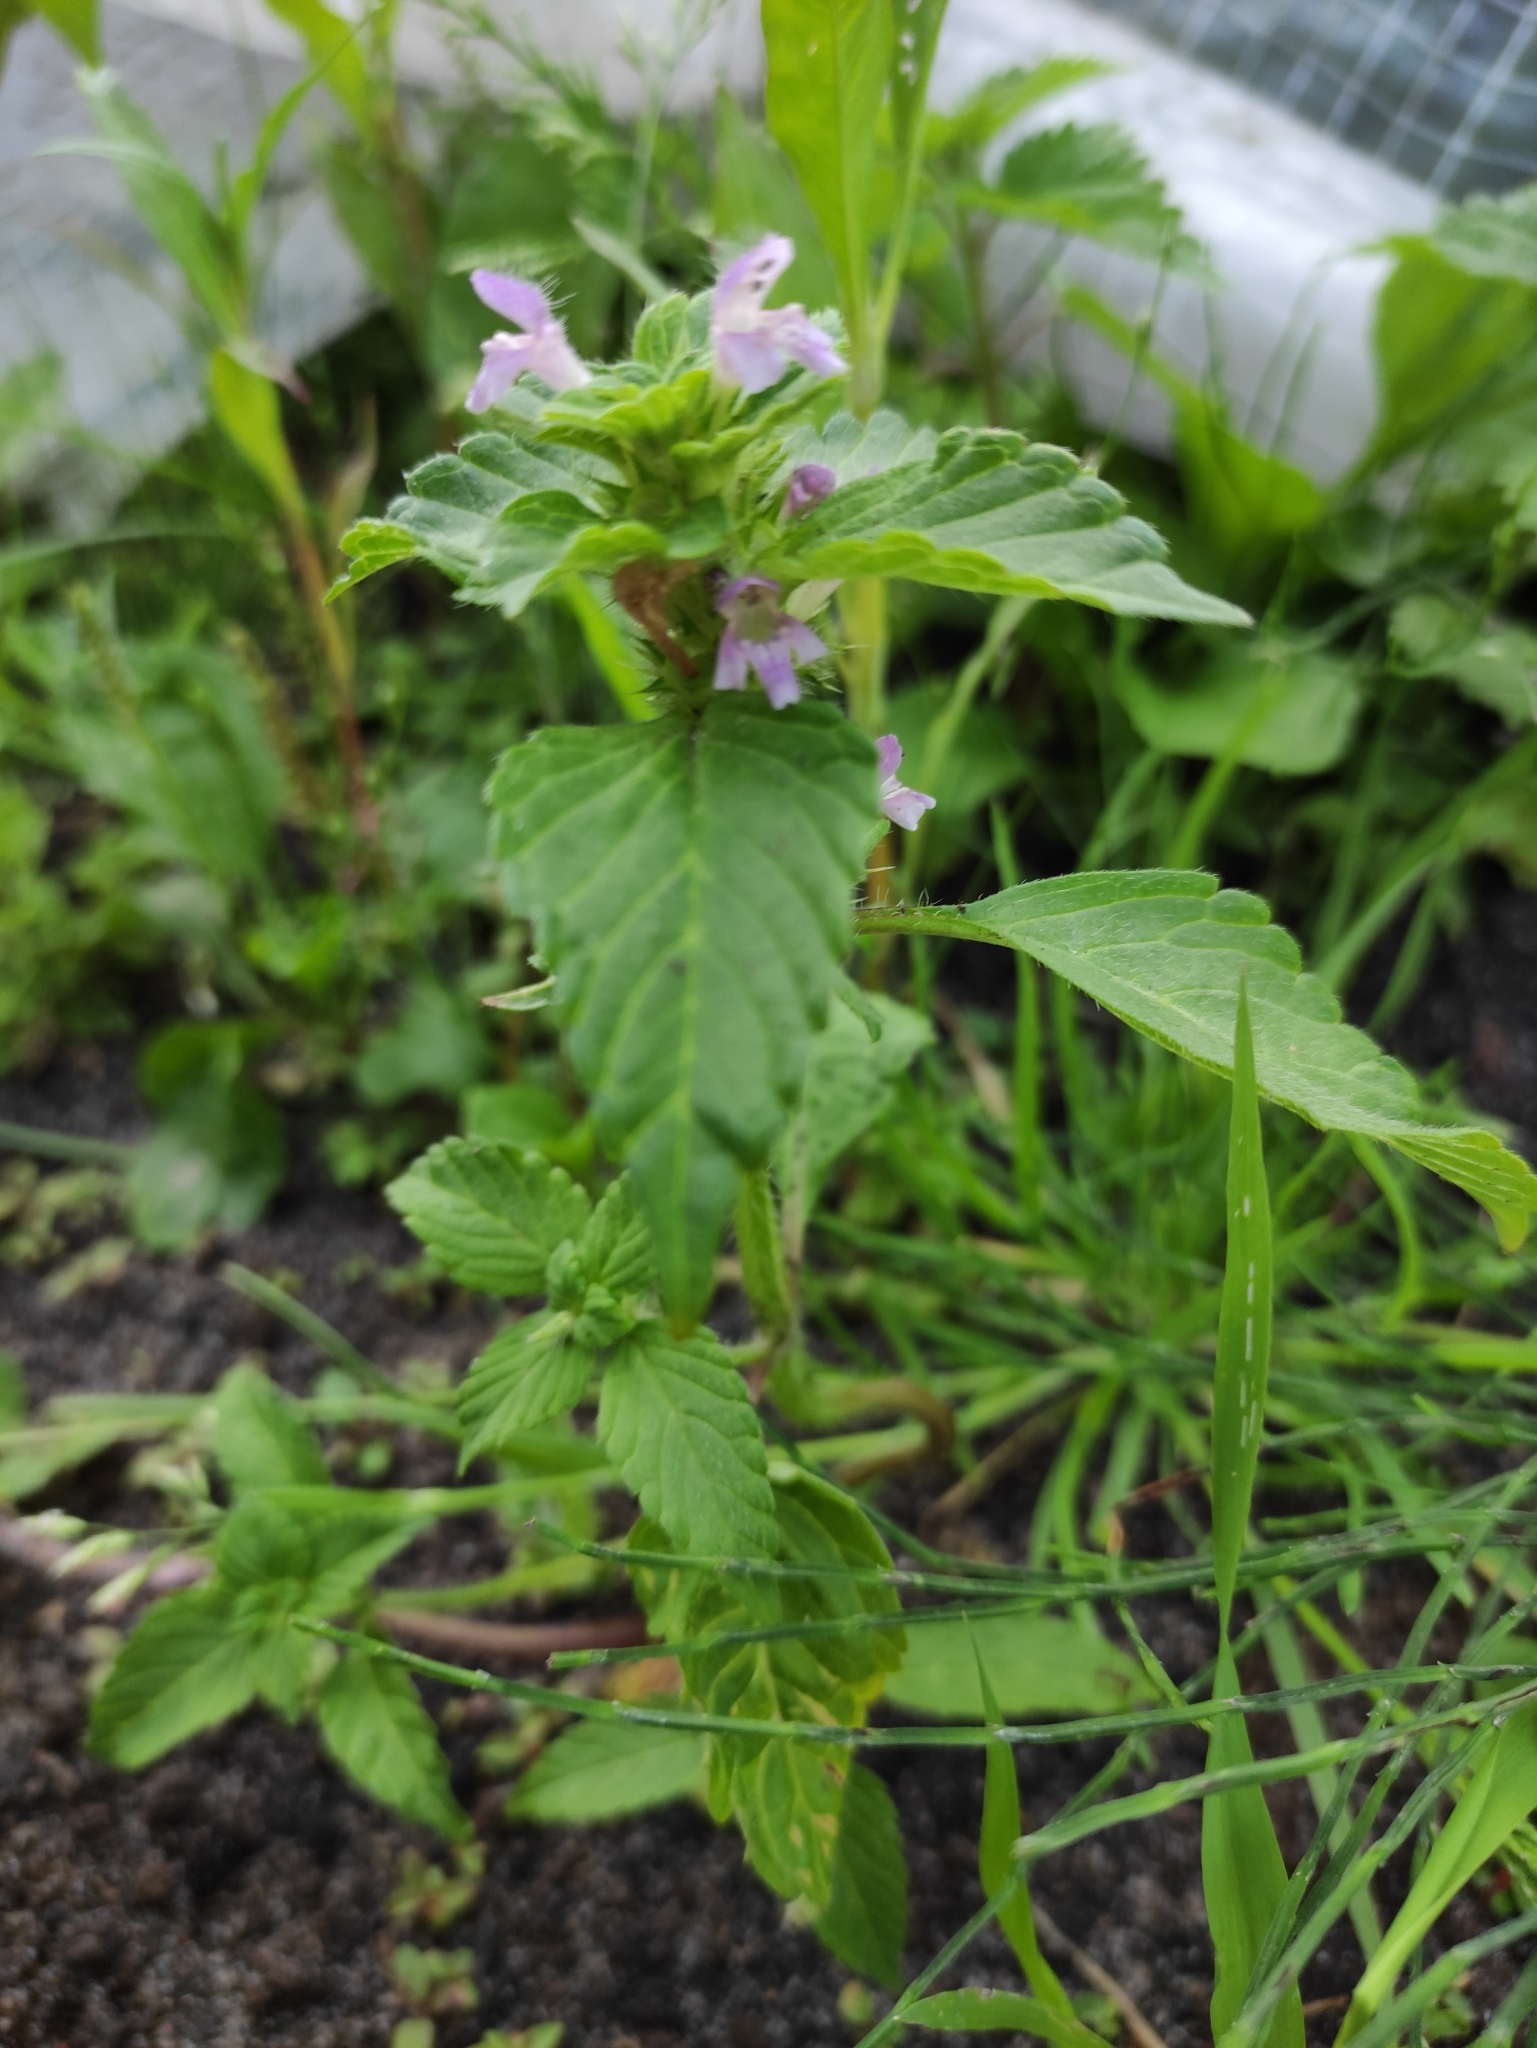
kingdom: Plantae
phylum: Tracheophyta
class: Magnoliopsida
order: Lamiales
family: Lamiaceae
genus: Galeopsis
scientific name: Galeopsis bifida
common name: Bifid hemp-nettle
